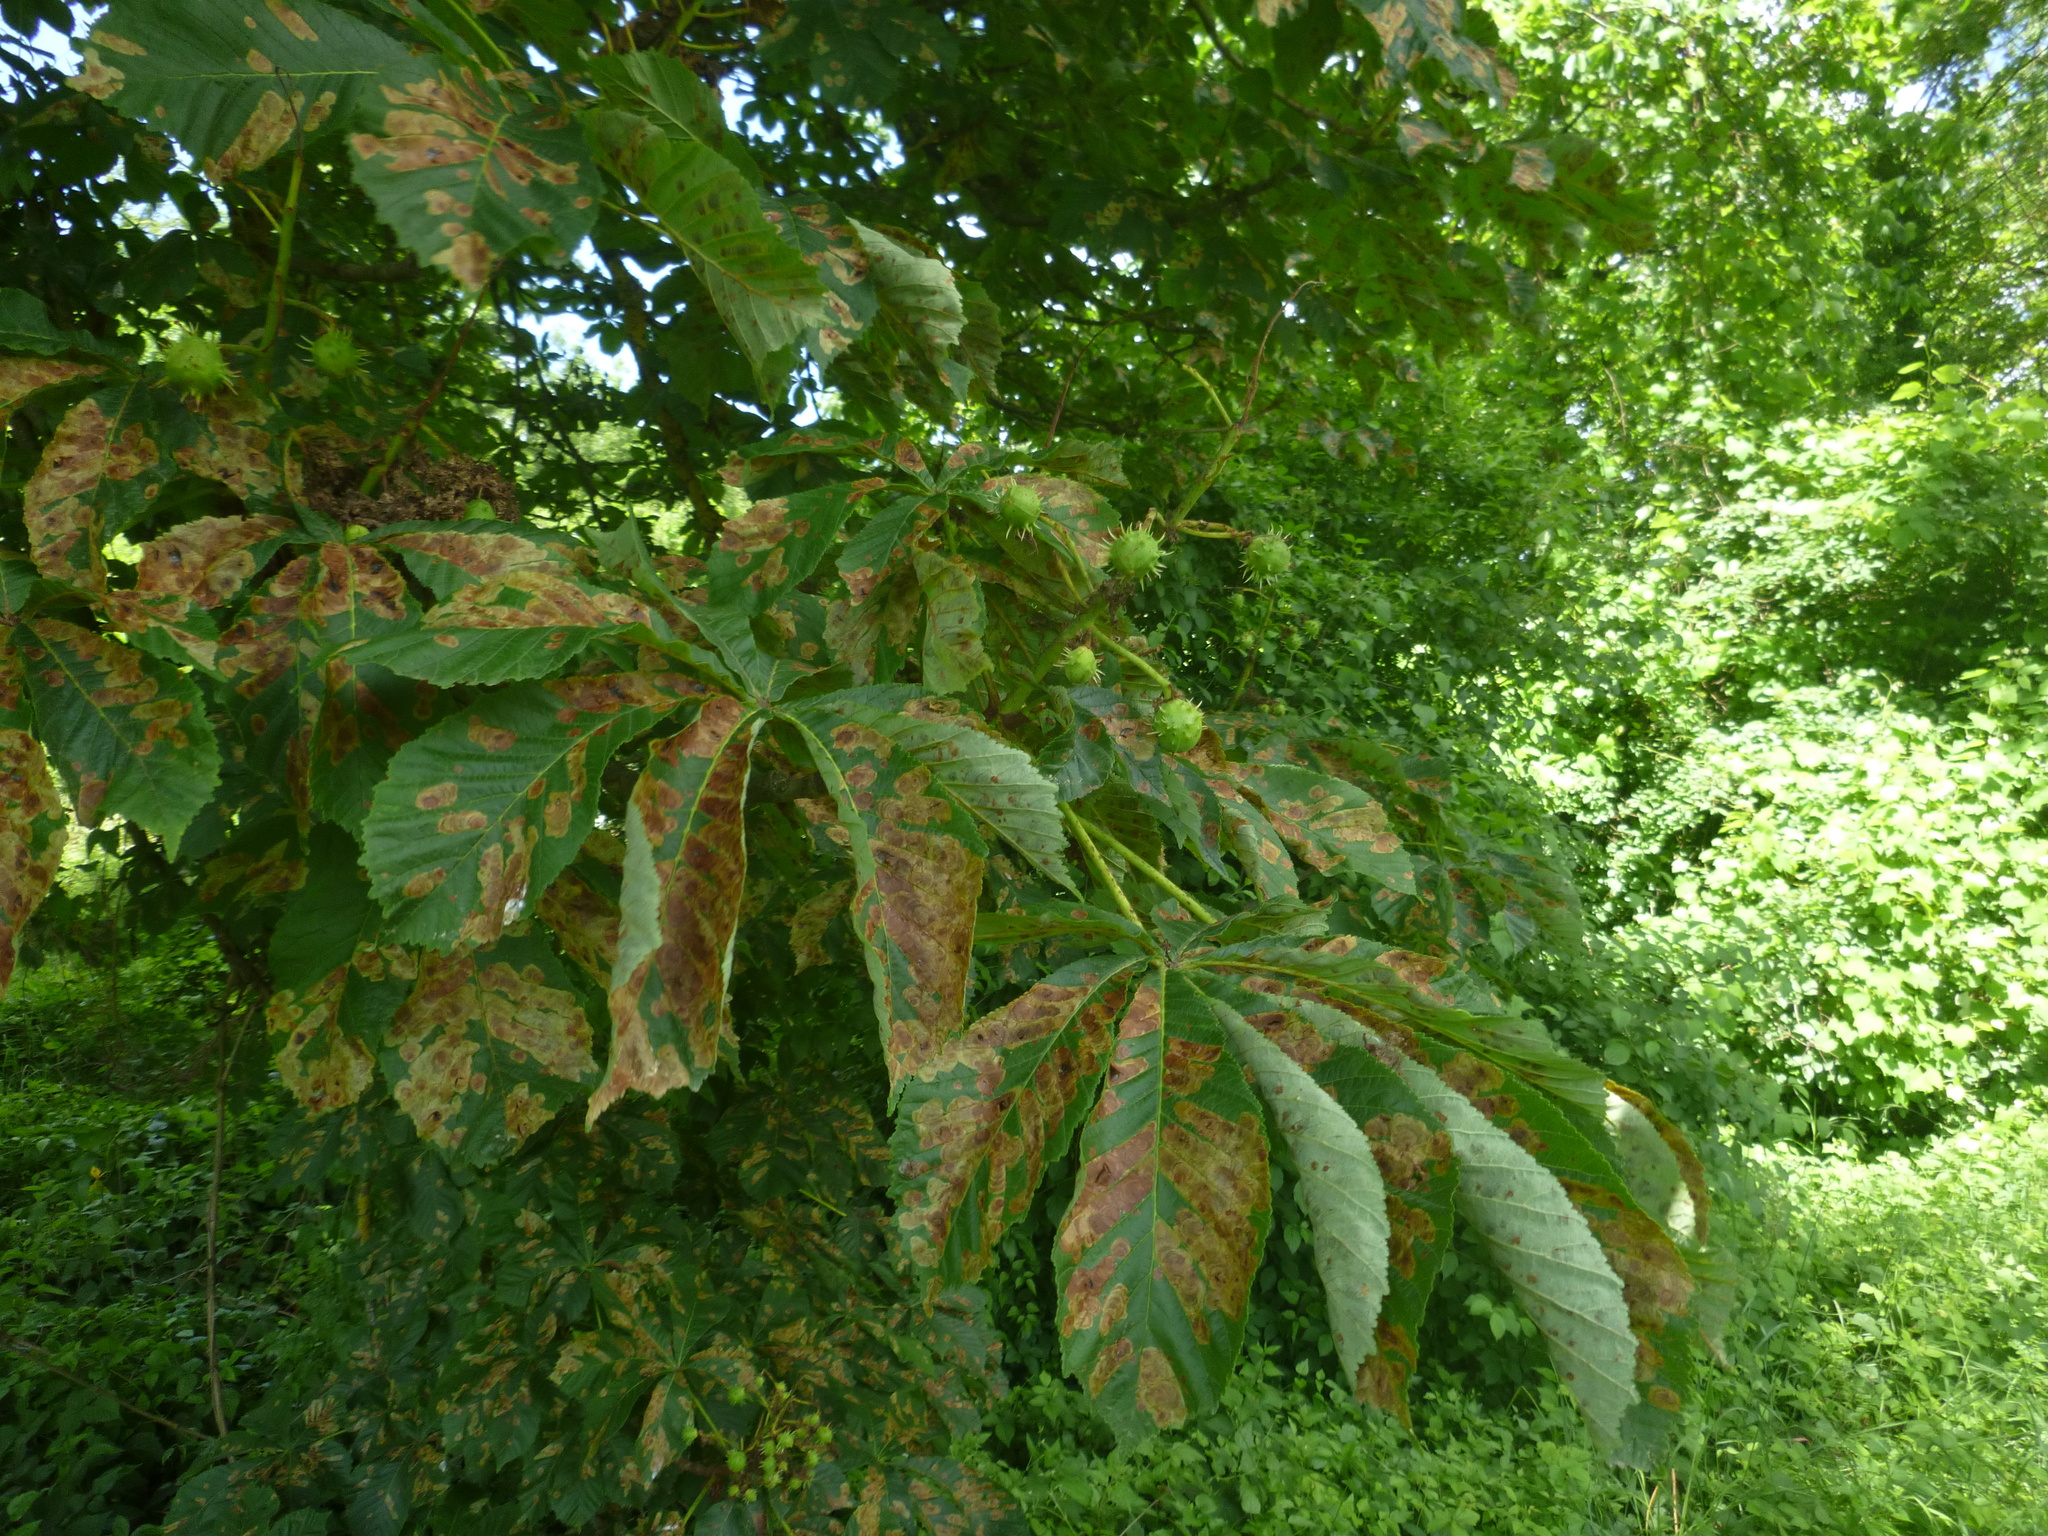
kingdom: Animalia
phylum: Arthropoda
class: Insecta
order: Lepidoptera
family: Gracillariidae
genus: Cameraria
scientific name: Cameraria ohridella
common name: Horse-chestnut leaf-miner
